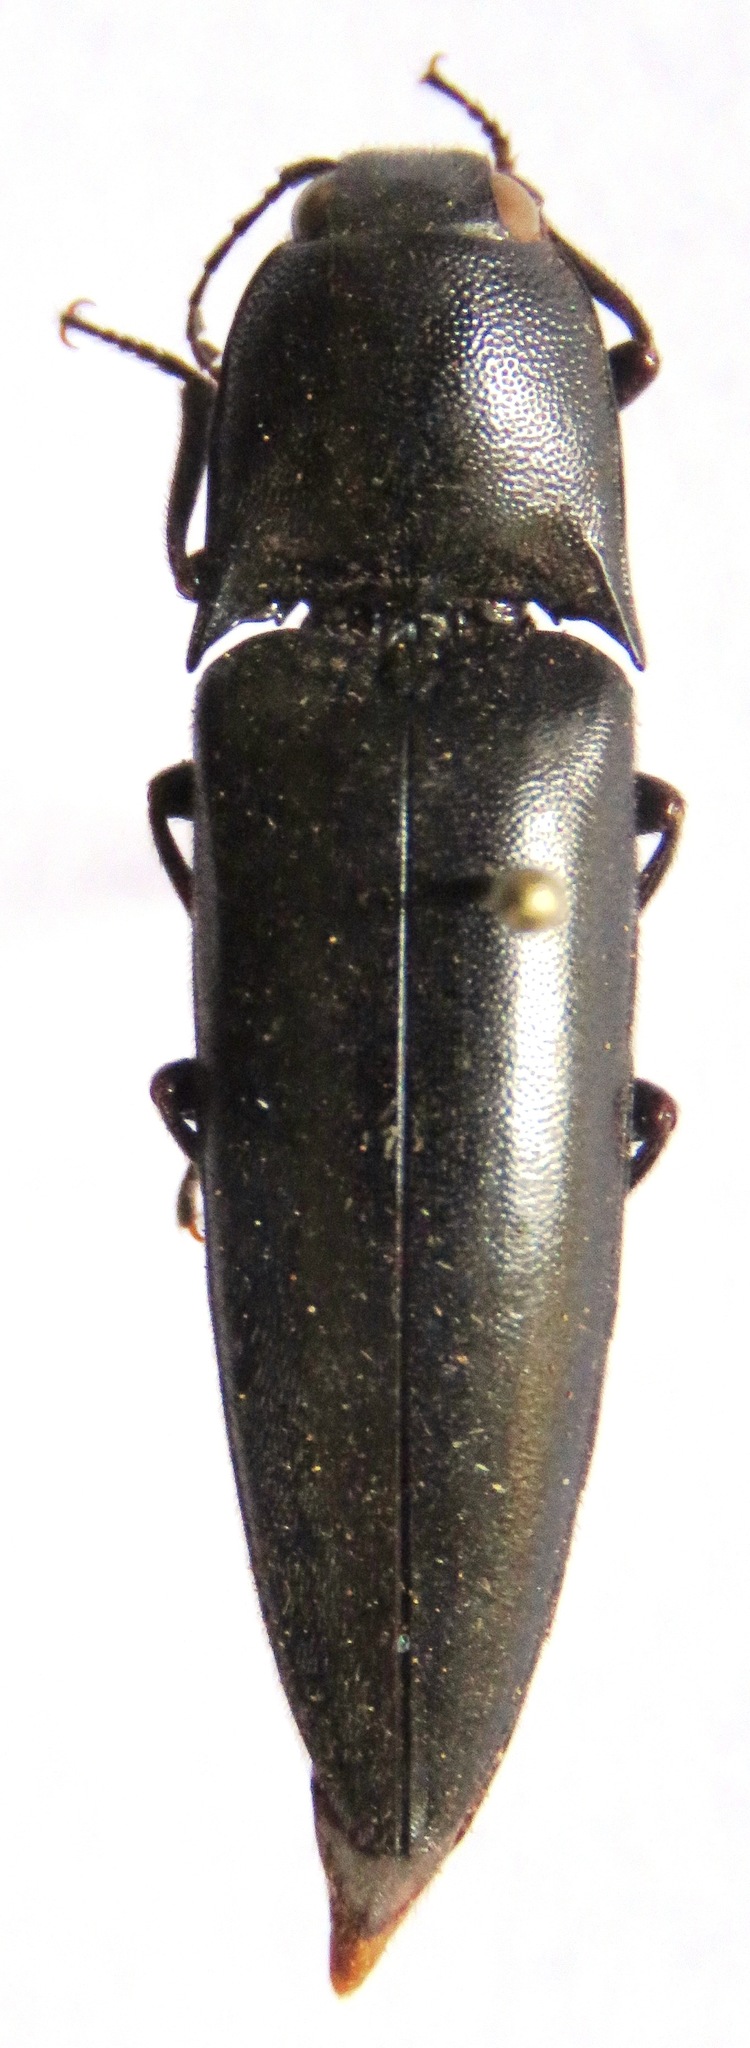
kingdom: Animalia
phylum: Arthropoda
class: Insecta
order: Coleoptera
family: Elateridae
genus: Orthostethus
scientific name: Orthostethus
